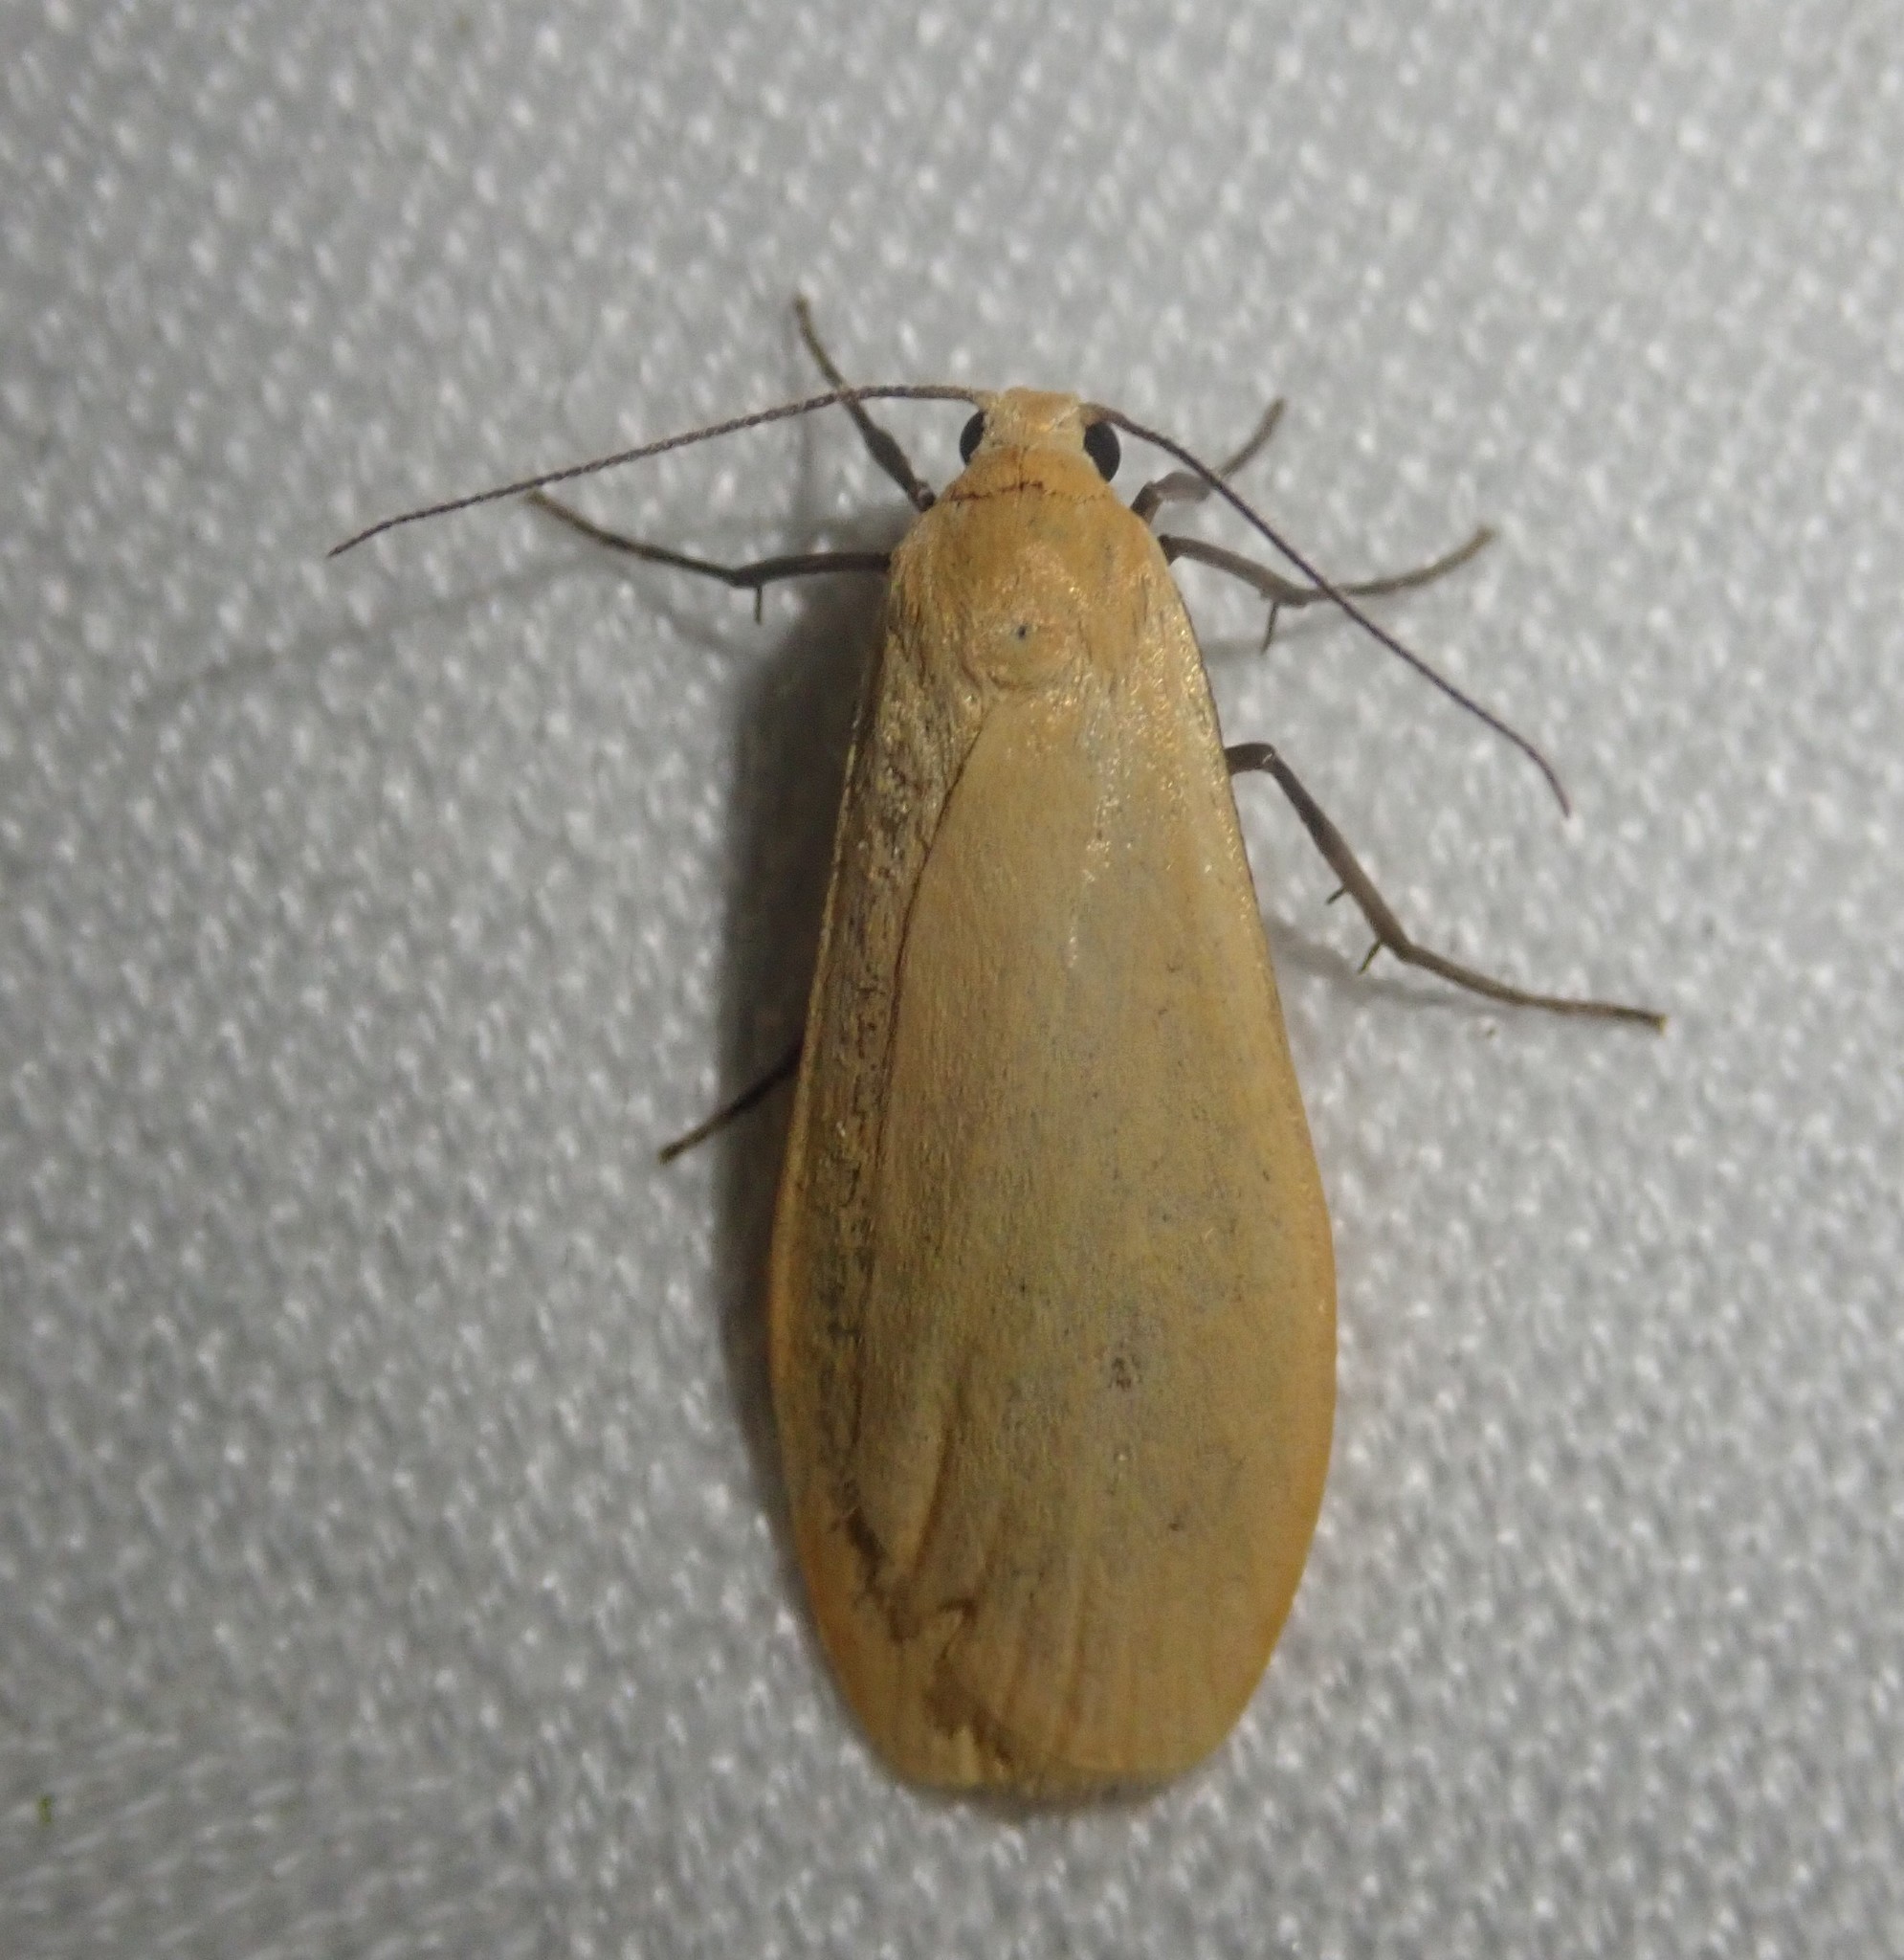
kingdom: Animalia
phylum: Arthropoda
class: Insecta
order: Lepidoptera
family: Erebidae
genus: Wittia
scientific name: Wittia sororcula
